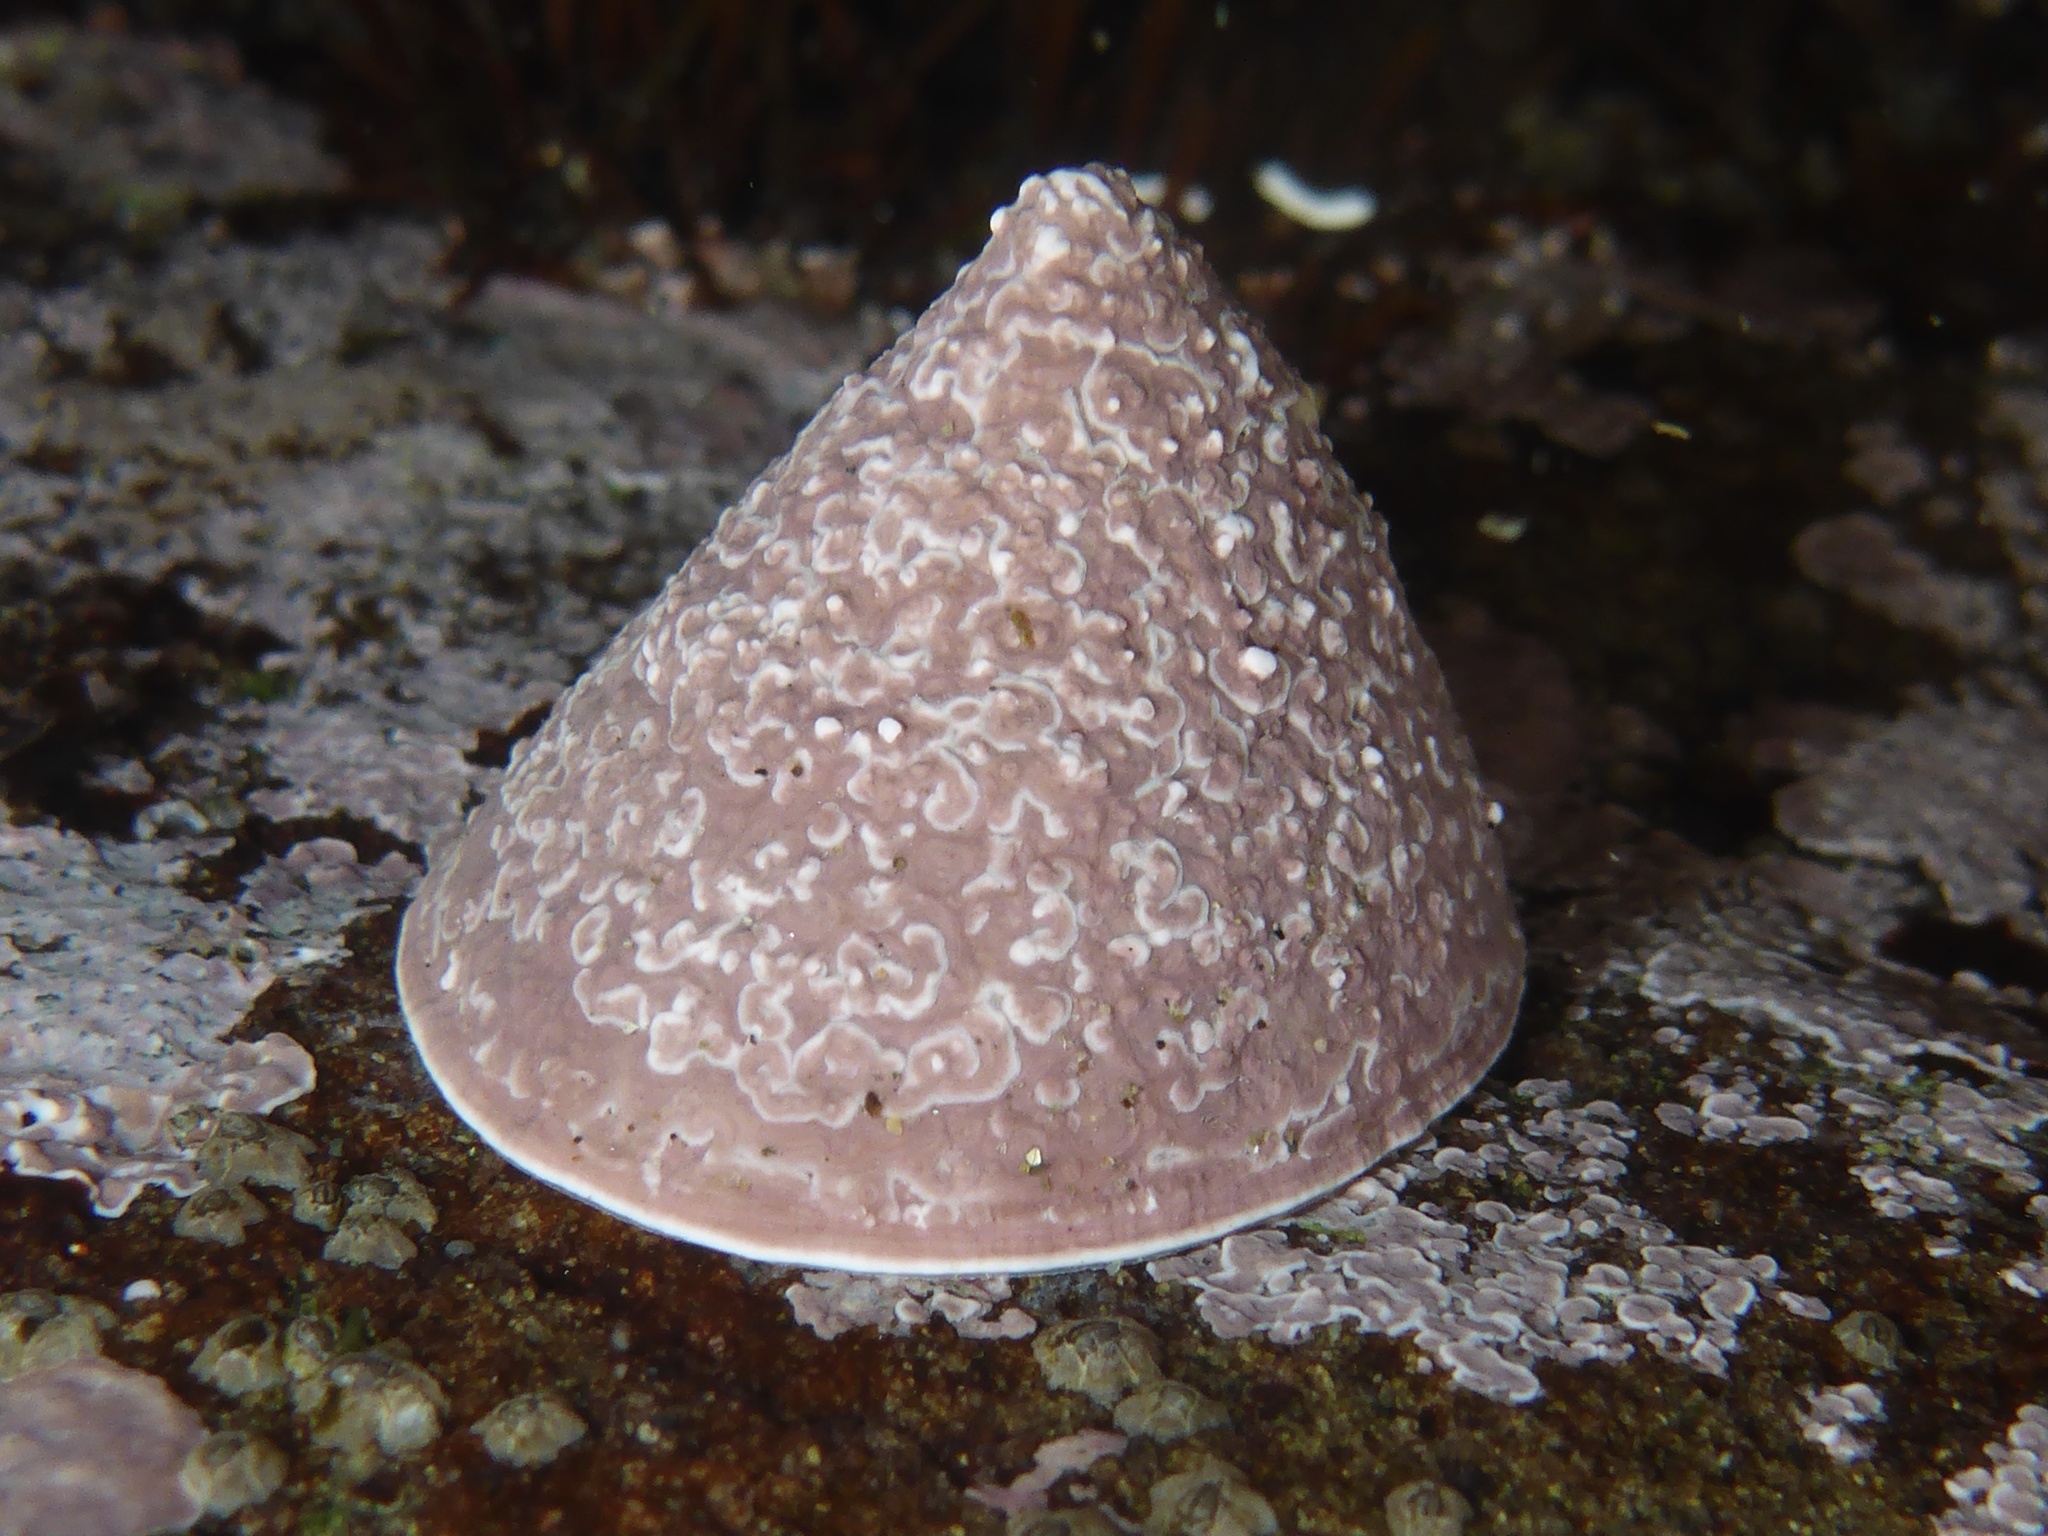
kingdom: Animalia
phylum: Mollusca
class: Gastropoda
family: Acmaeidae
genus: Acmaea
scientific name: Acmaea mitra
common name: Pacific white cap limpet
